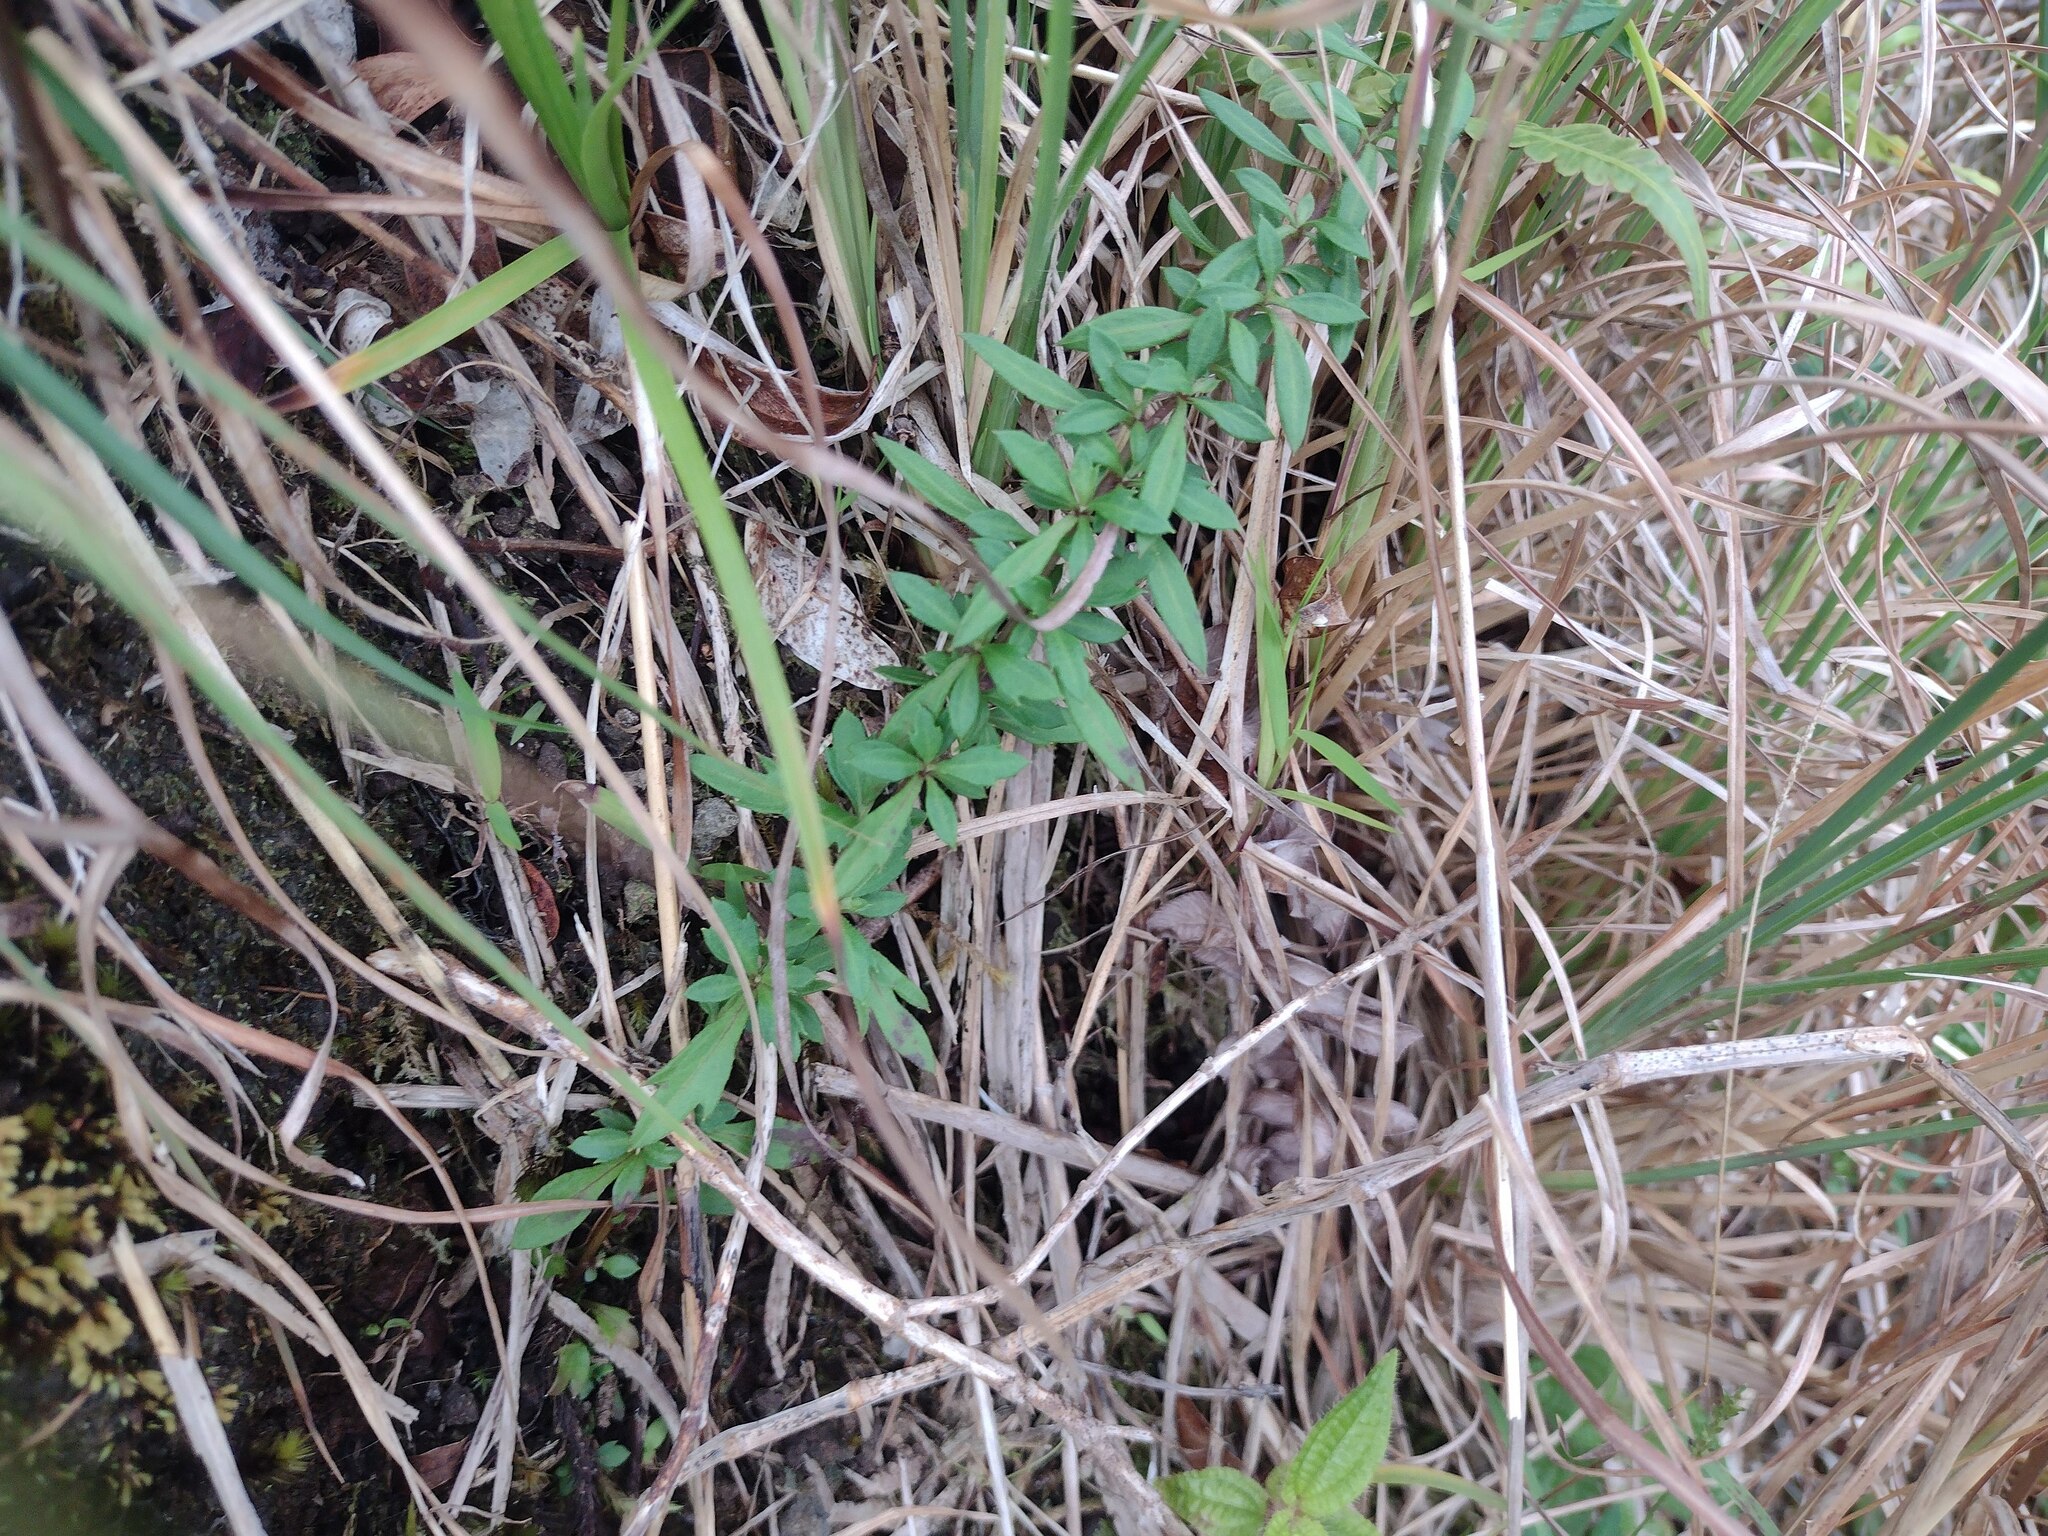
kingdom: Plantae
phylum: Tracheophyta
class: Magnoliopsida
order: Asterales
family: Asteraceae
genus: Erigeron
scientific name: Erigeron karvinskianus
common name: Mexican fleabane
